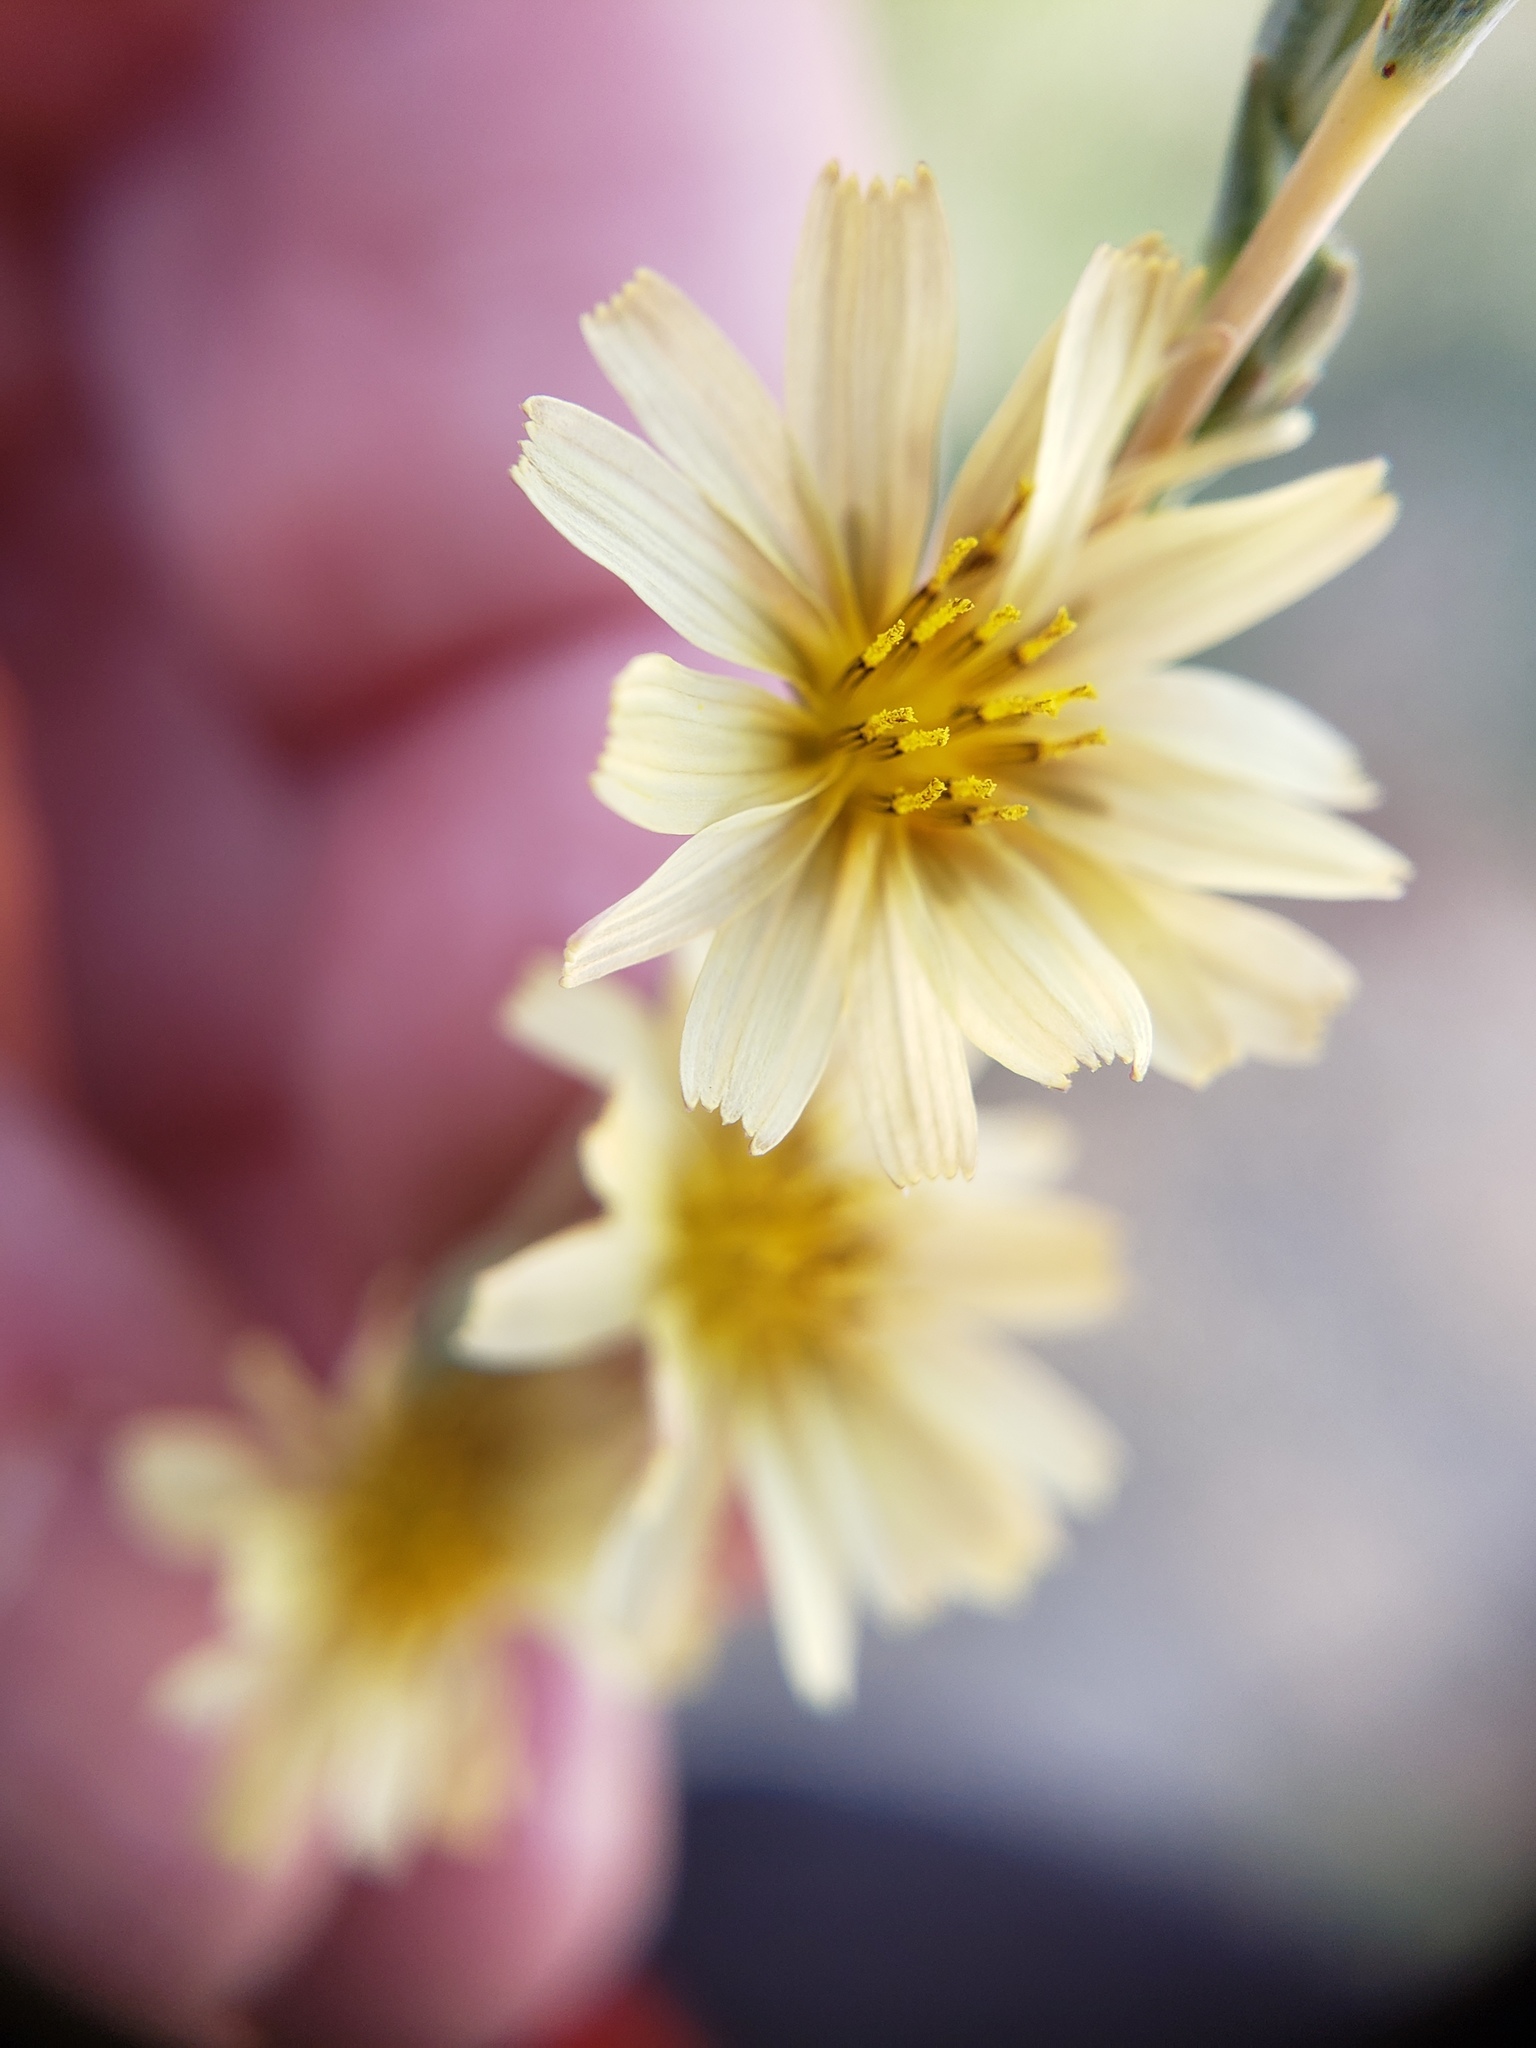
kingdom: Plantae
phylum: Tracheophyta
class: Magnoliopsida
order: Asterales
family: Asteraceae
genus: Lactuca
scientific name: Lactuca saligna
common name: Wild lettuce
